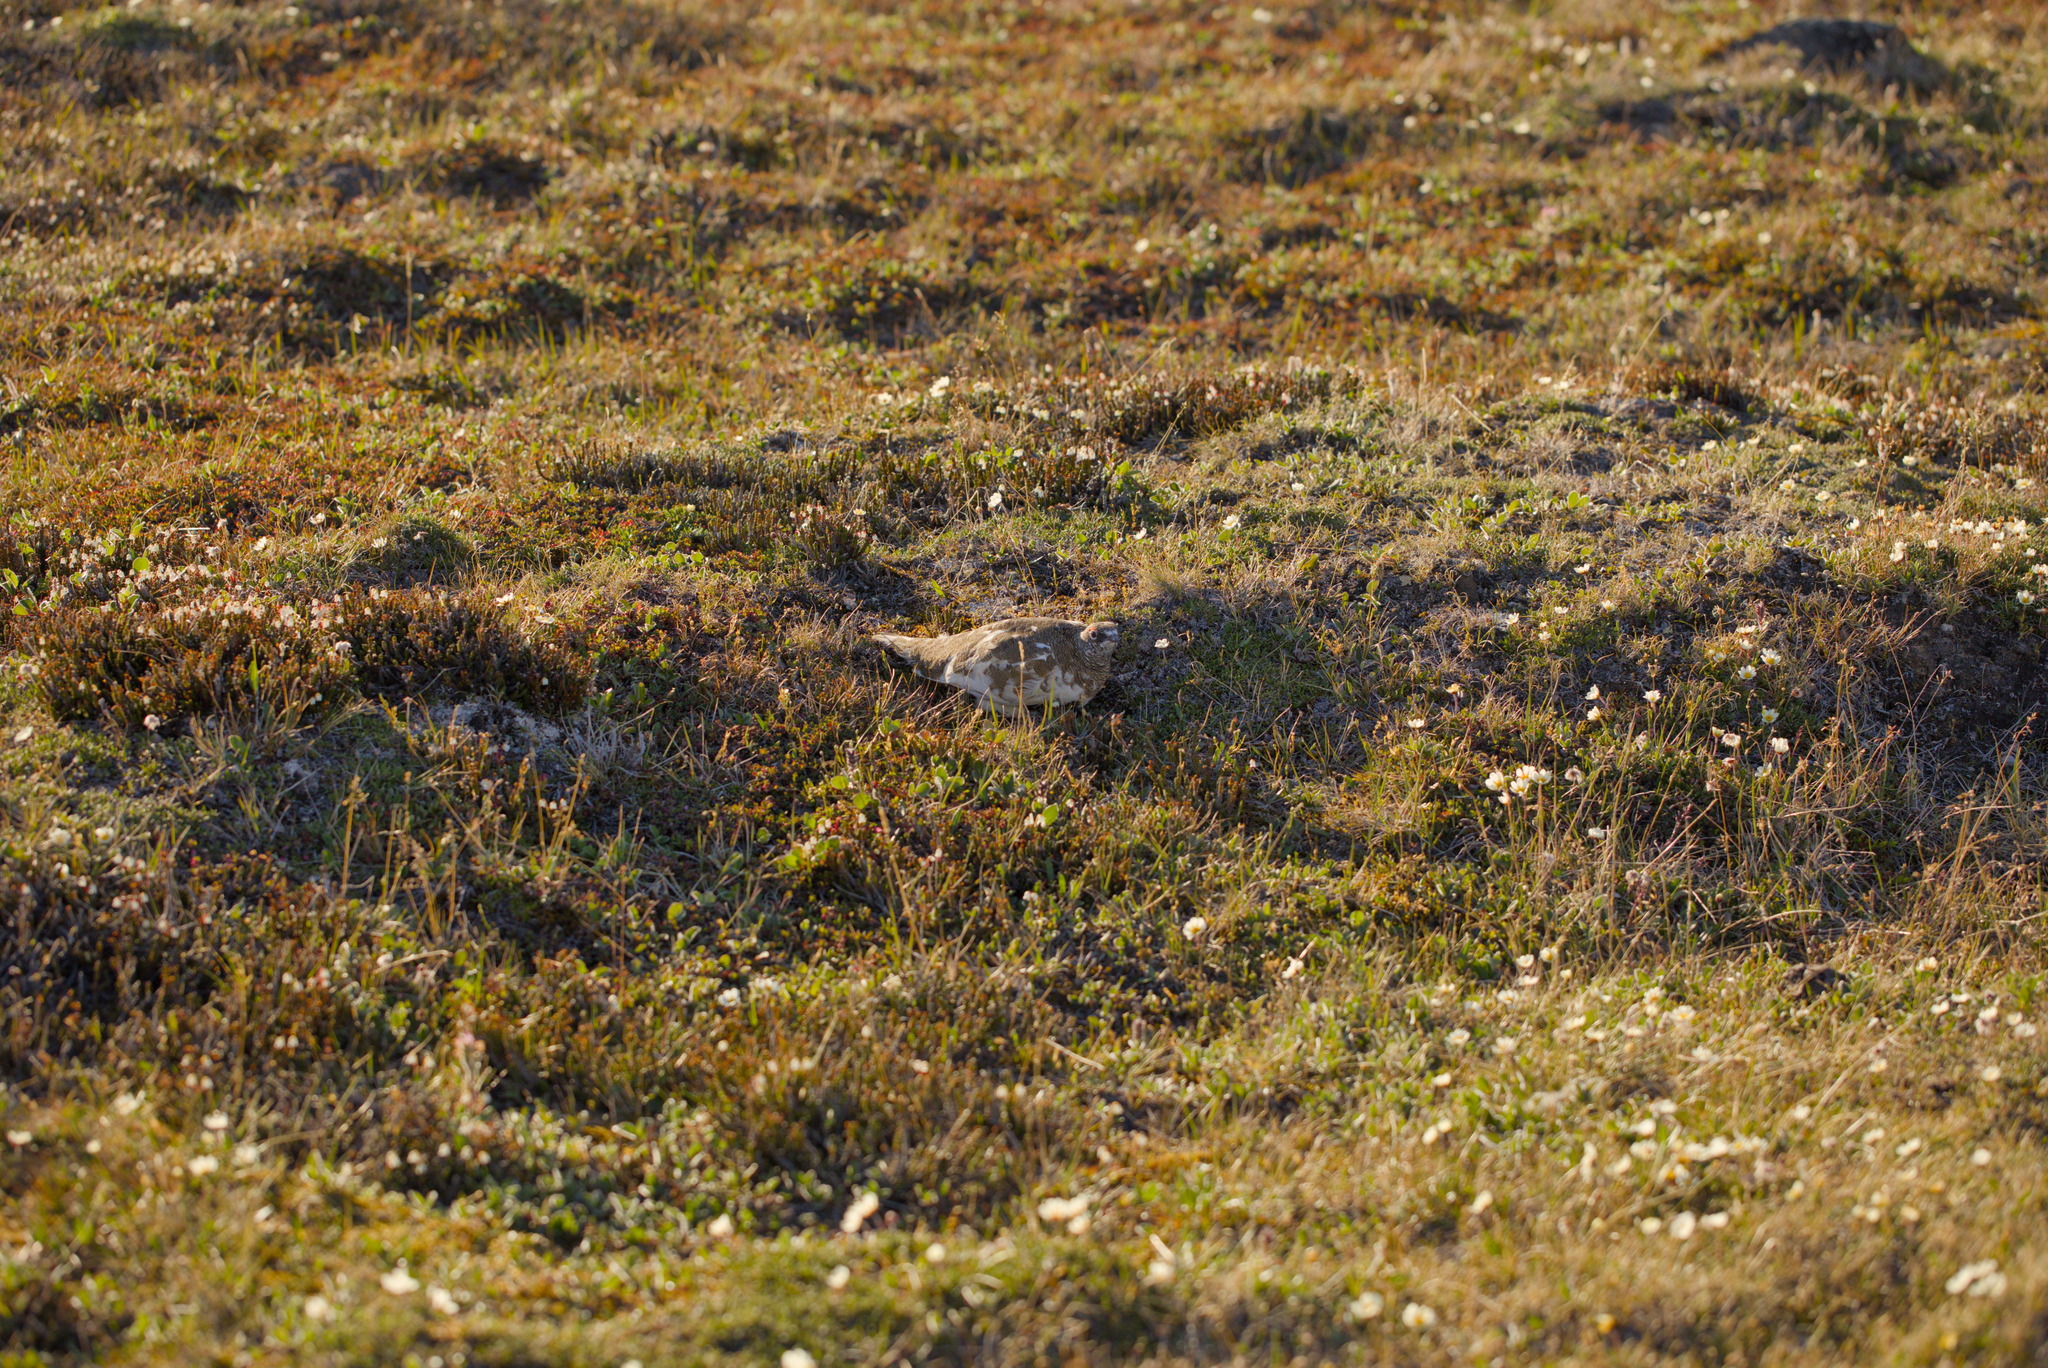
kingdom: Animalia
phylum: Chordata
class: Aves
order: Galliformes
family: Phasianidae
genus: Lagopus
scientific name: Lagopus muta
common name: Rock ptarmigan
